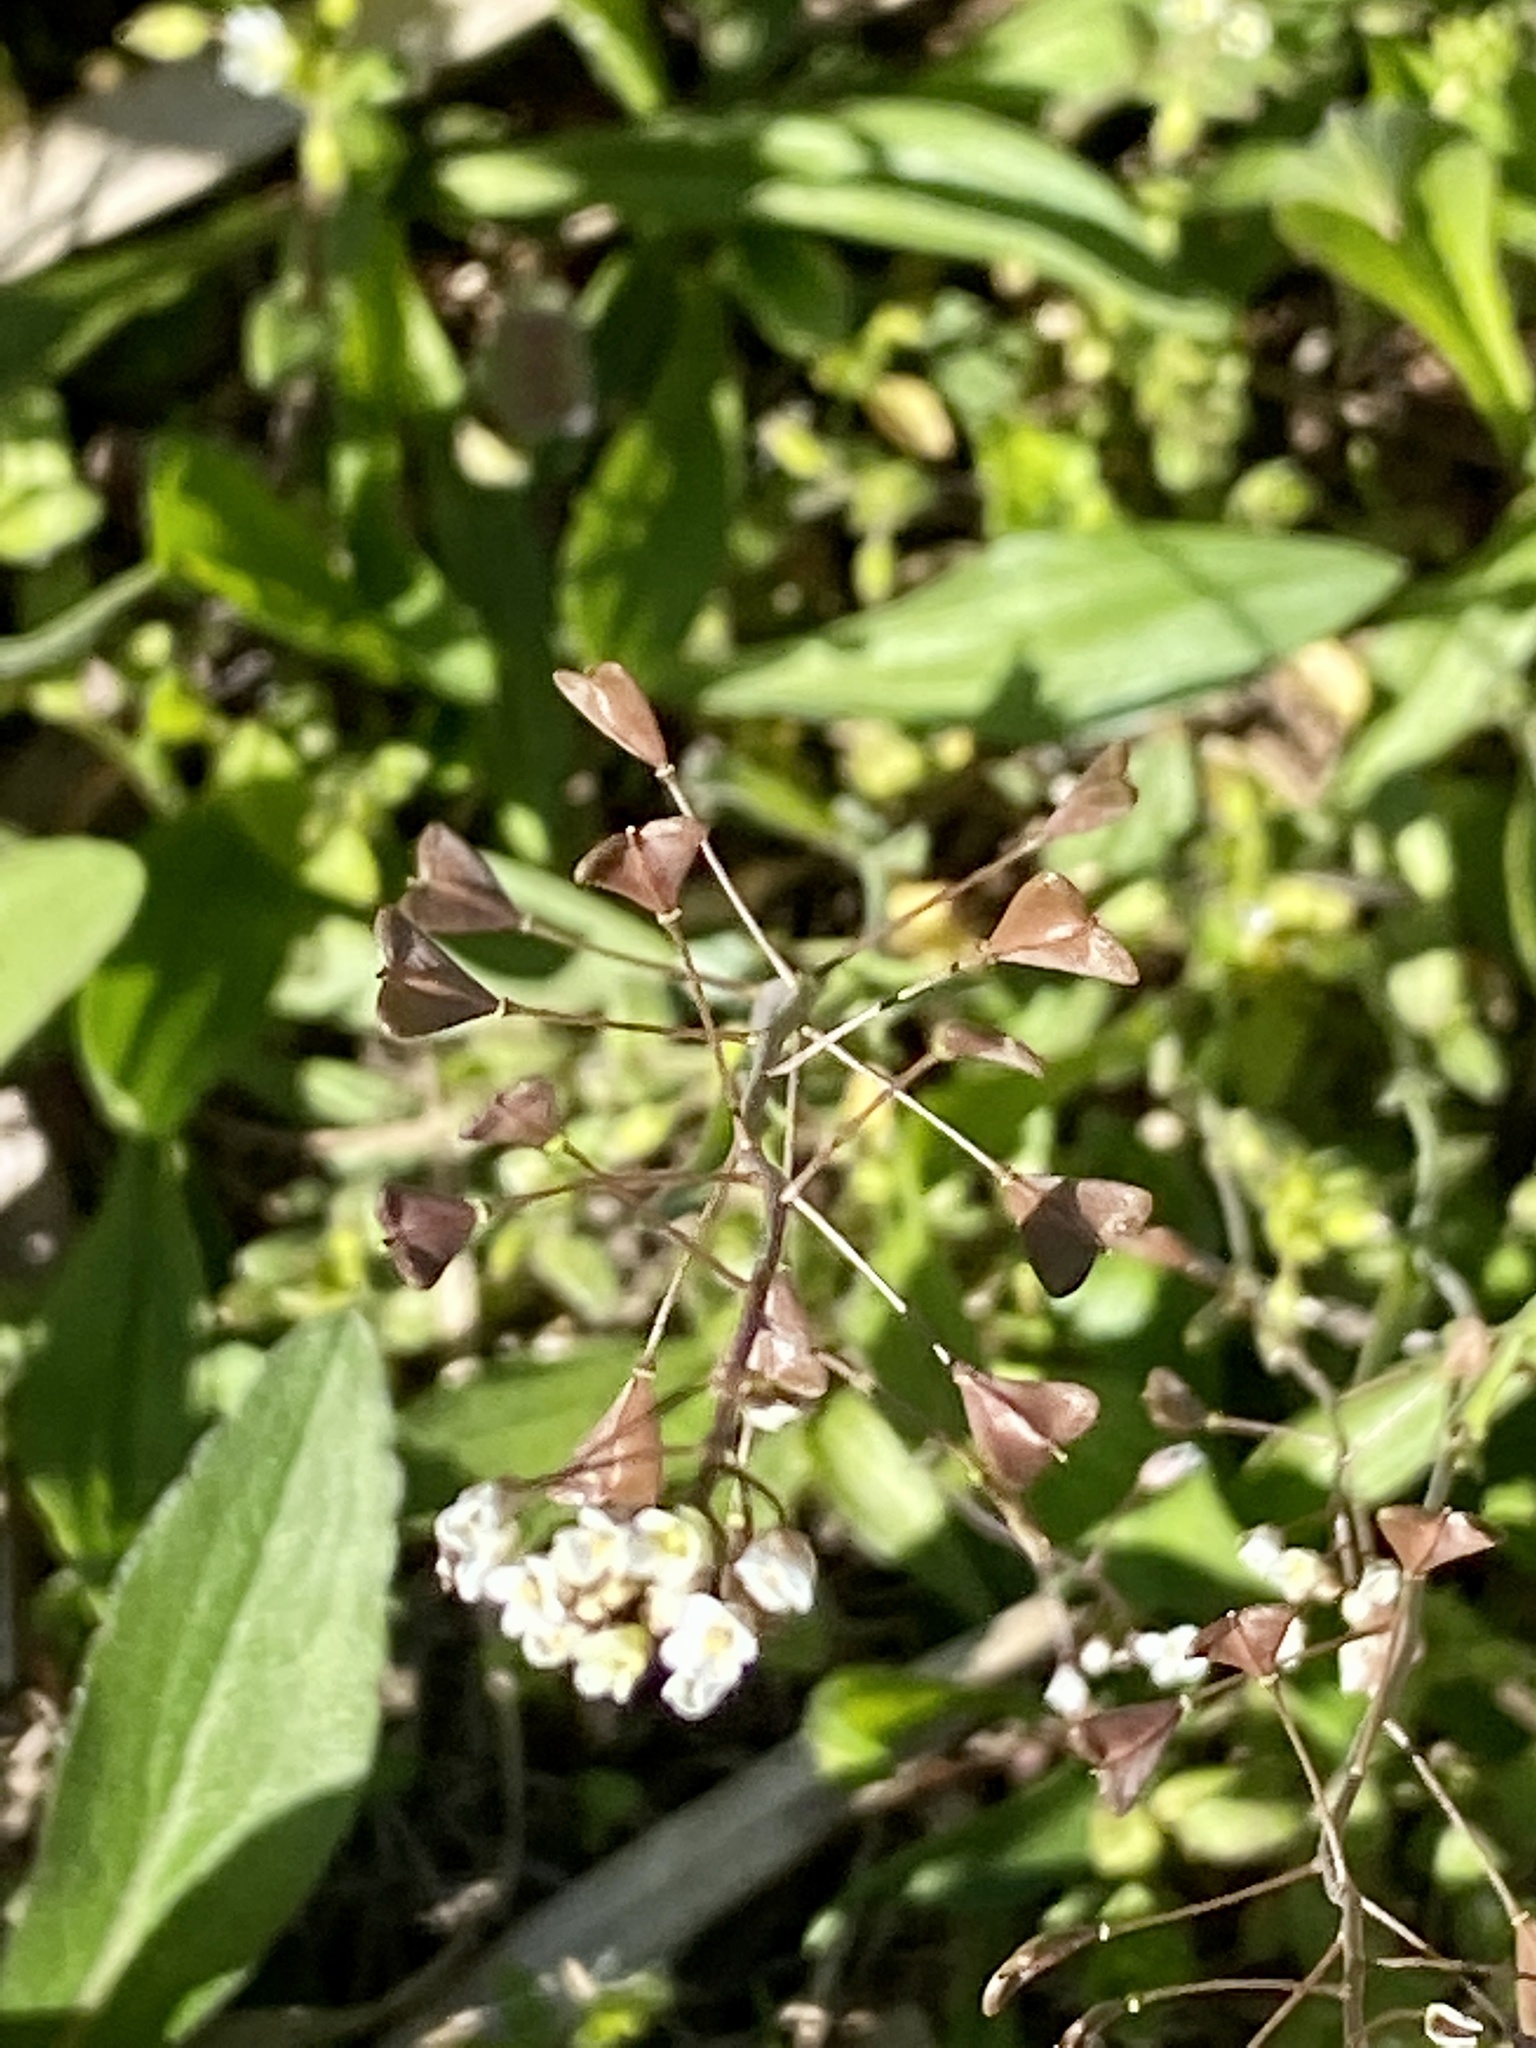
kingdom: Plantae
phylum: Tracheophyta
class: Magnoliopsida
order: Brassicales
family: Brassicaceae
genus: Capsella
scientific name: Capsella bursa-pastoris
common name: Shepherd's purse
